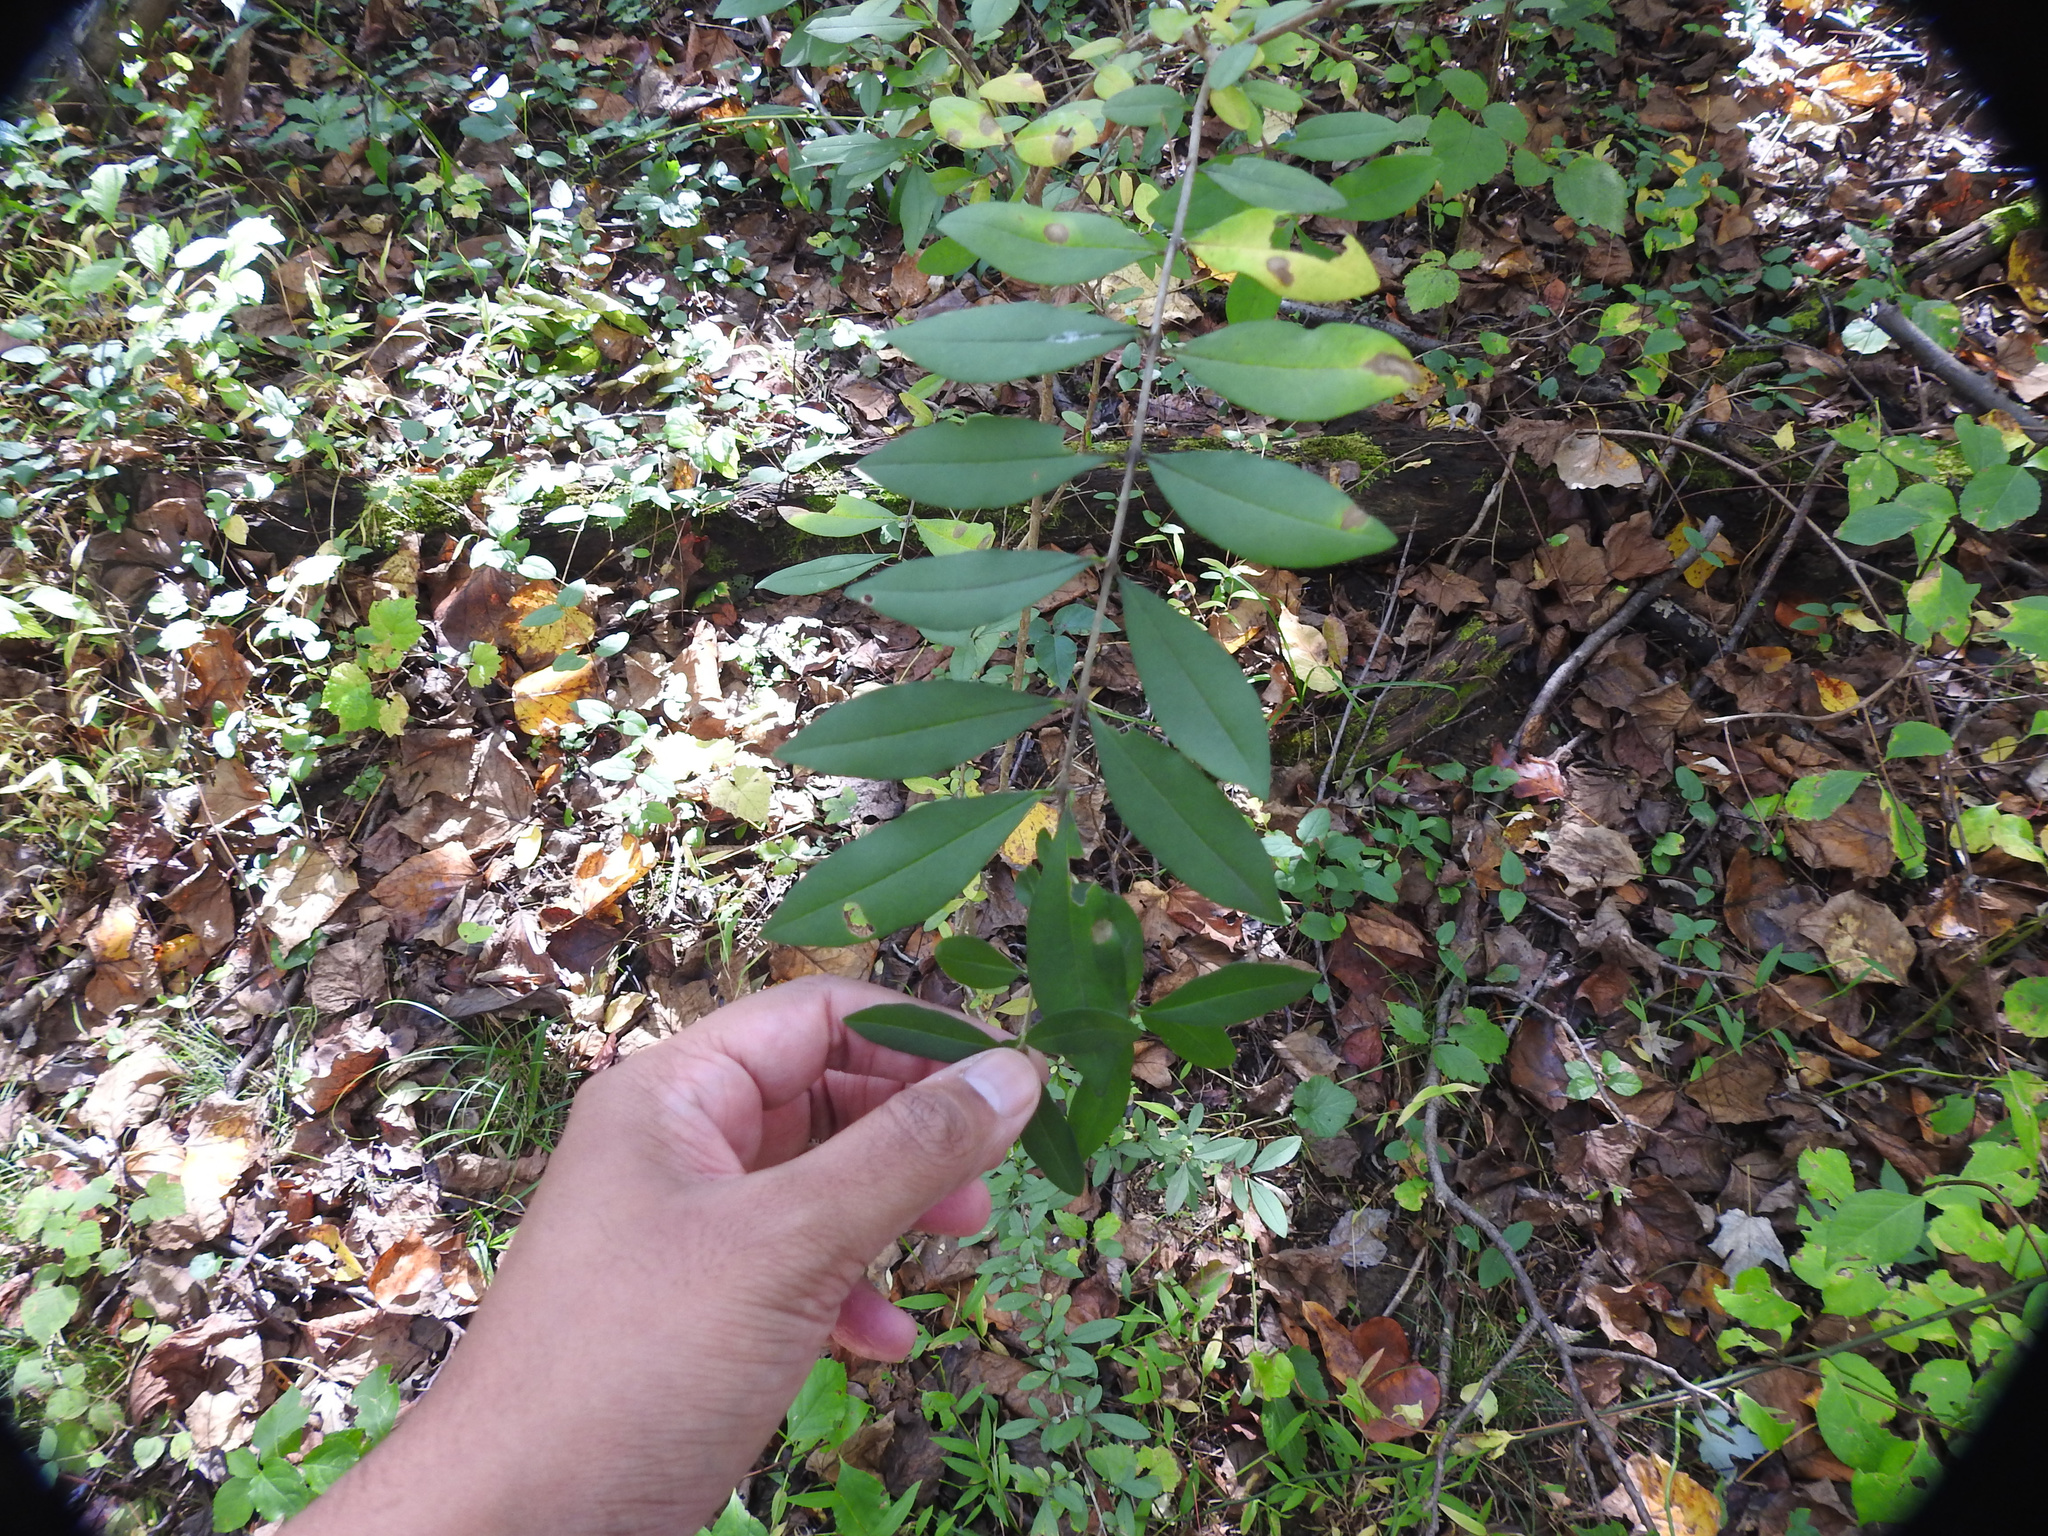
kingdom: Plantae
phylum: Tracheophyta
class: Magnoliopsida
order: Lamiales
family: Oleaceae
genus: Ligustrum
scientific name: Ligustrum
